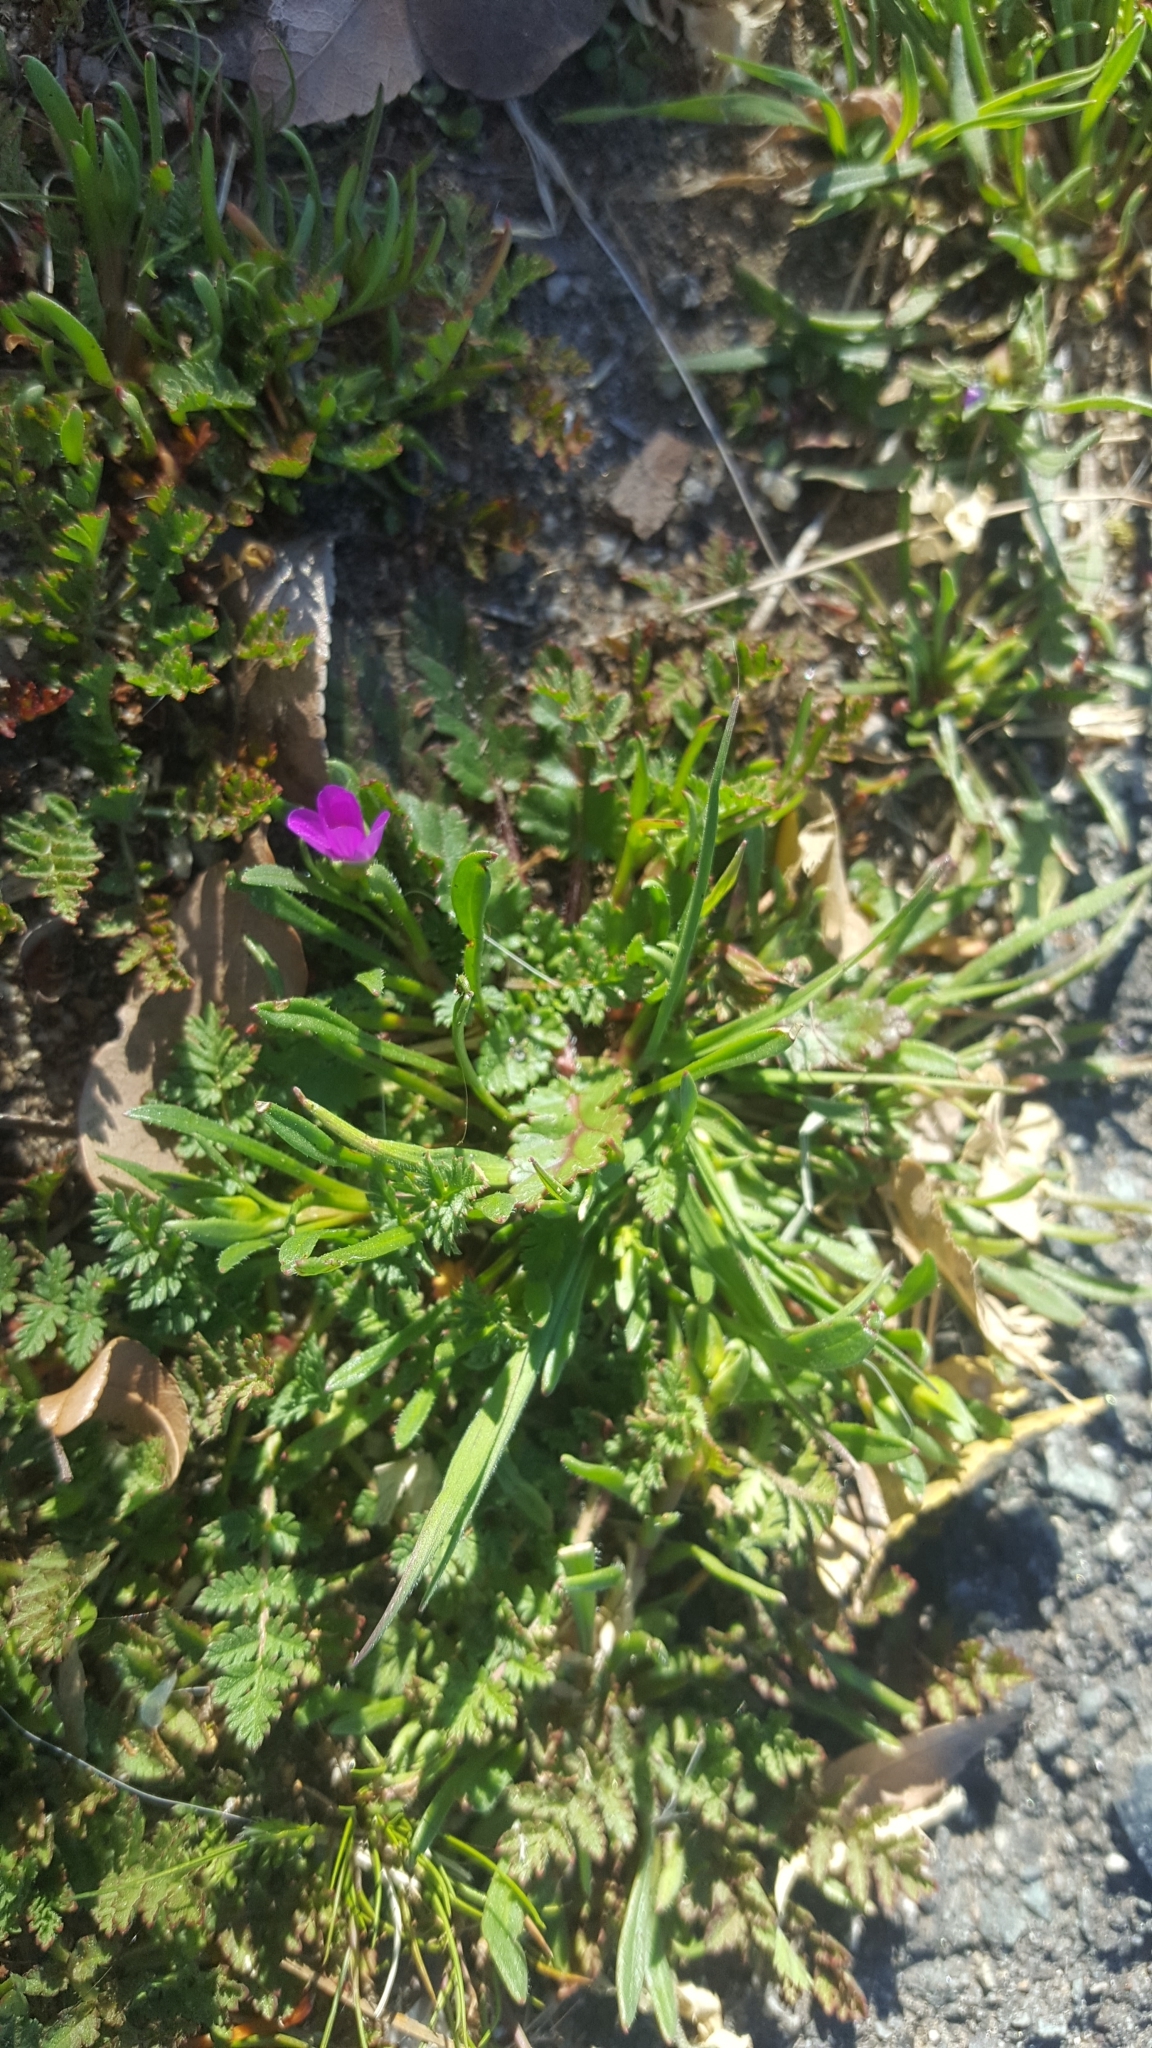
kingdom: Plantae
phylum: Tracheophyta
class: Magnoliopsida
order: Caryophyllales
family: Montiaceae
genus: Calandrinia
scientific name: Calandrinia menziesii
